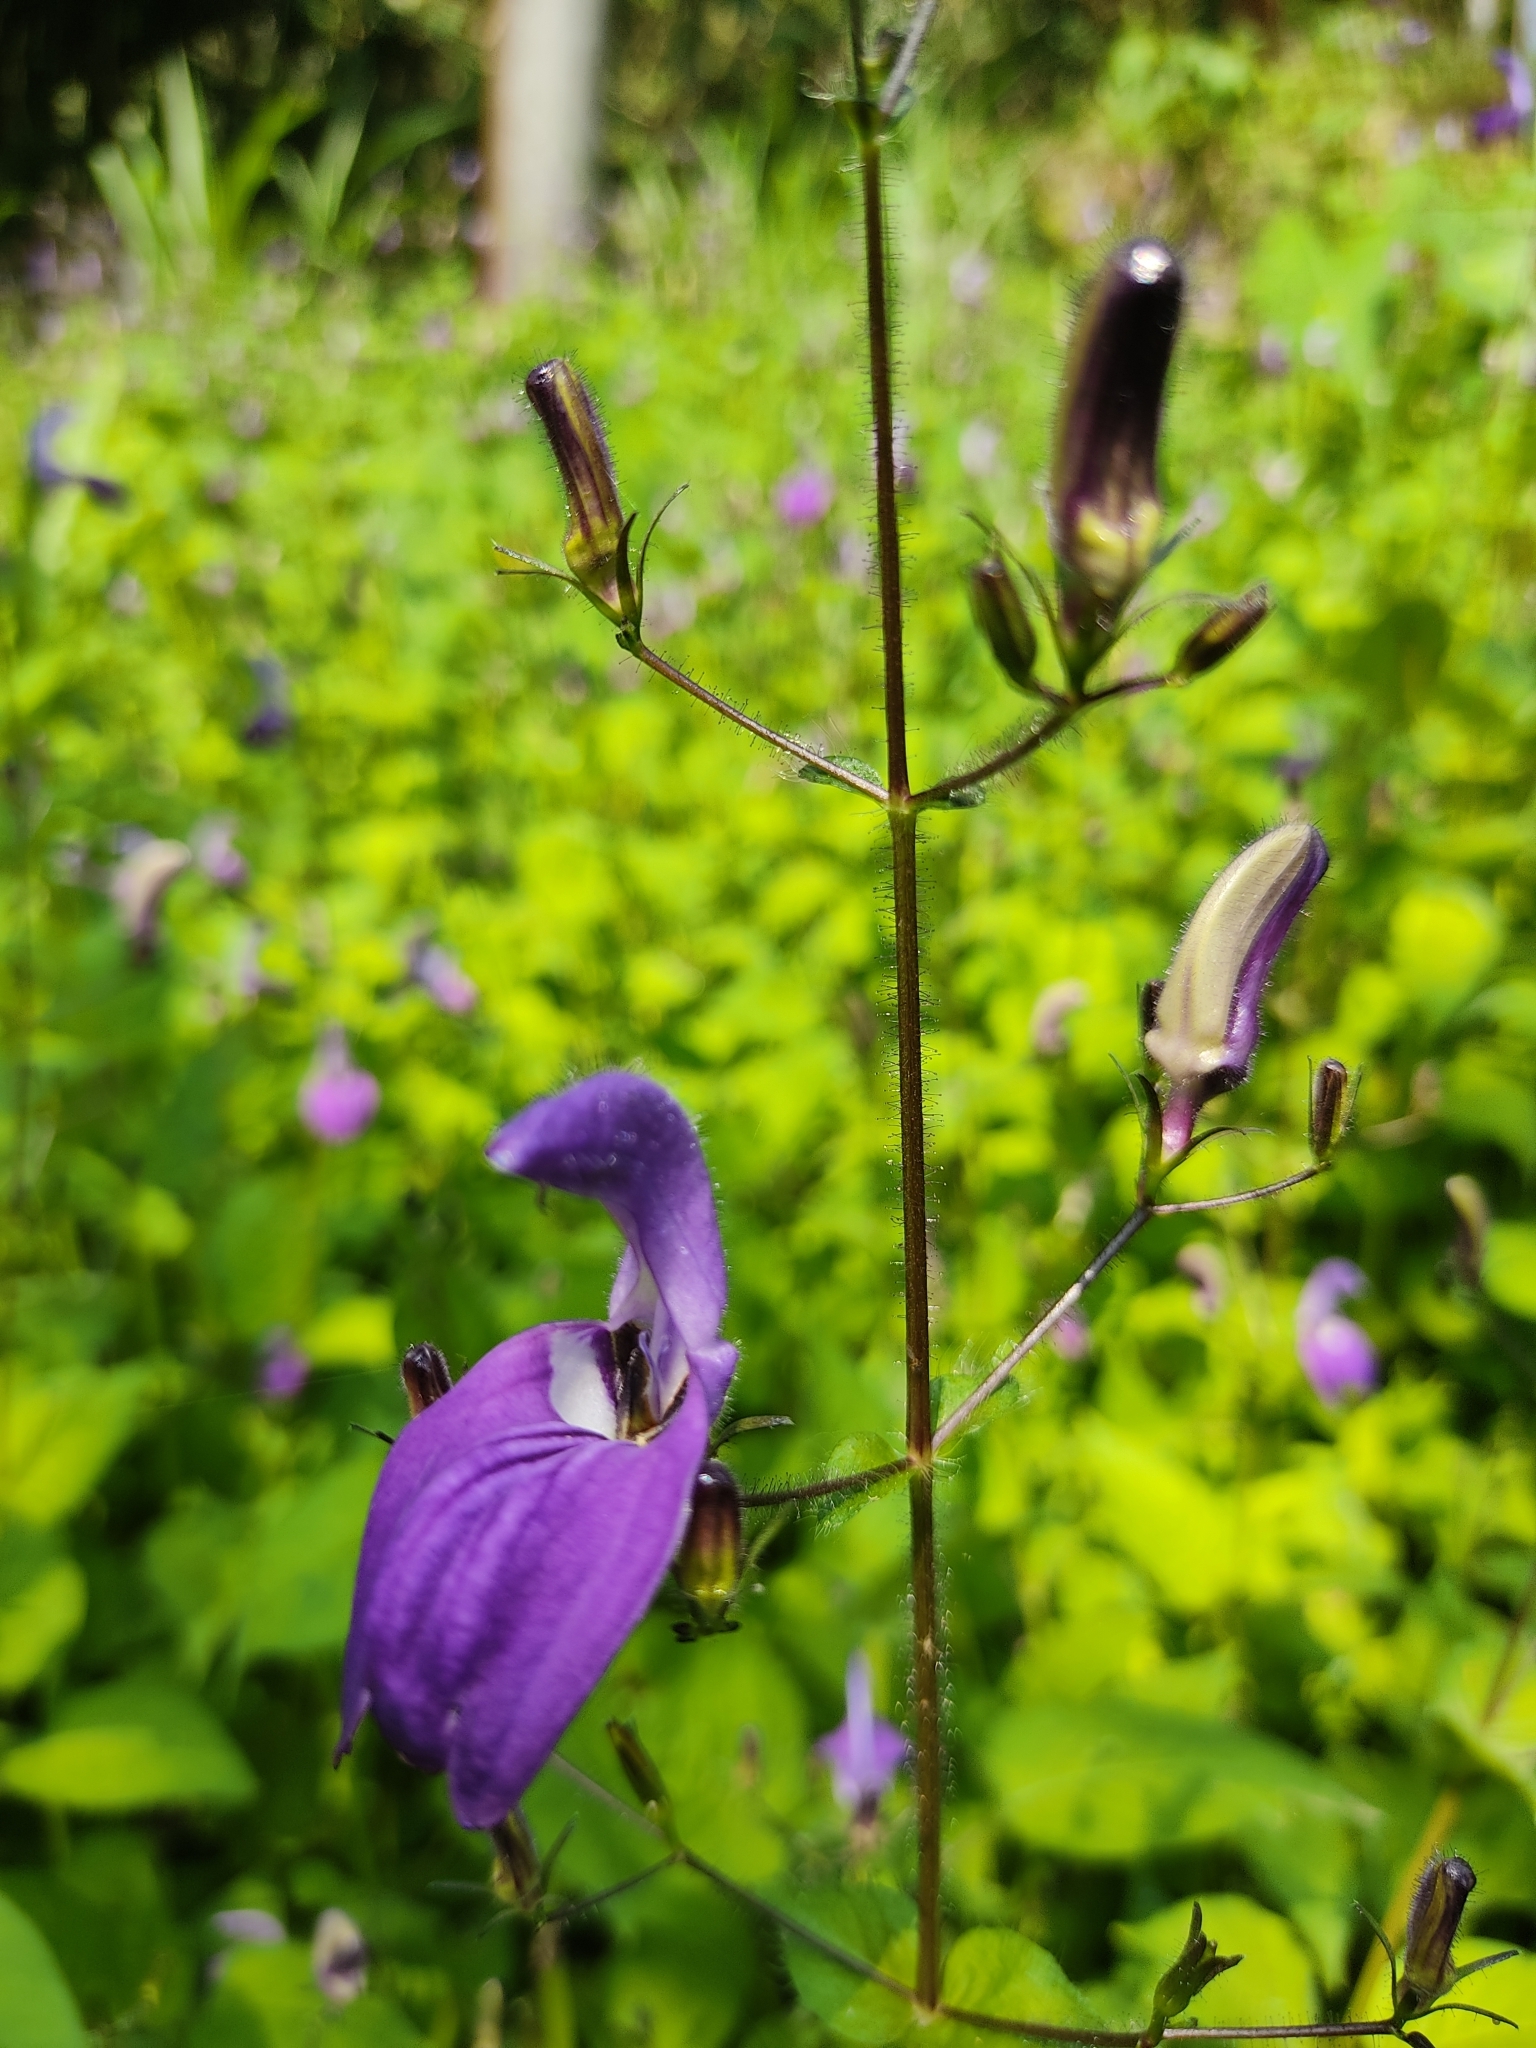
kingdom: Plantae
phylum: Tracheophyta
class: Magnoliopsida
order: Lamiales
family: Acanthaceae
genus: Brillantaisia
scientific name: Brillantaisia lamium
